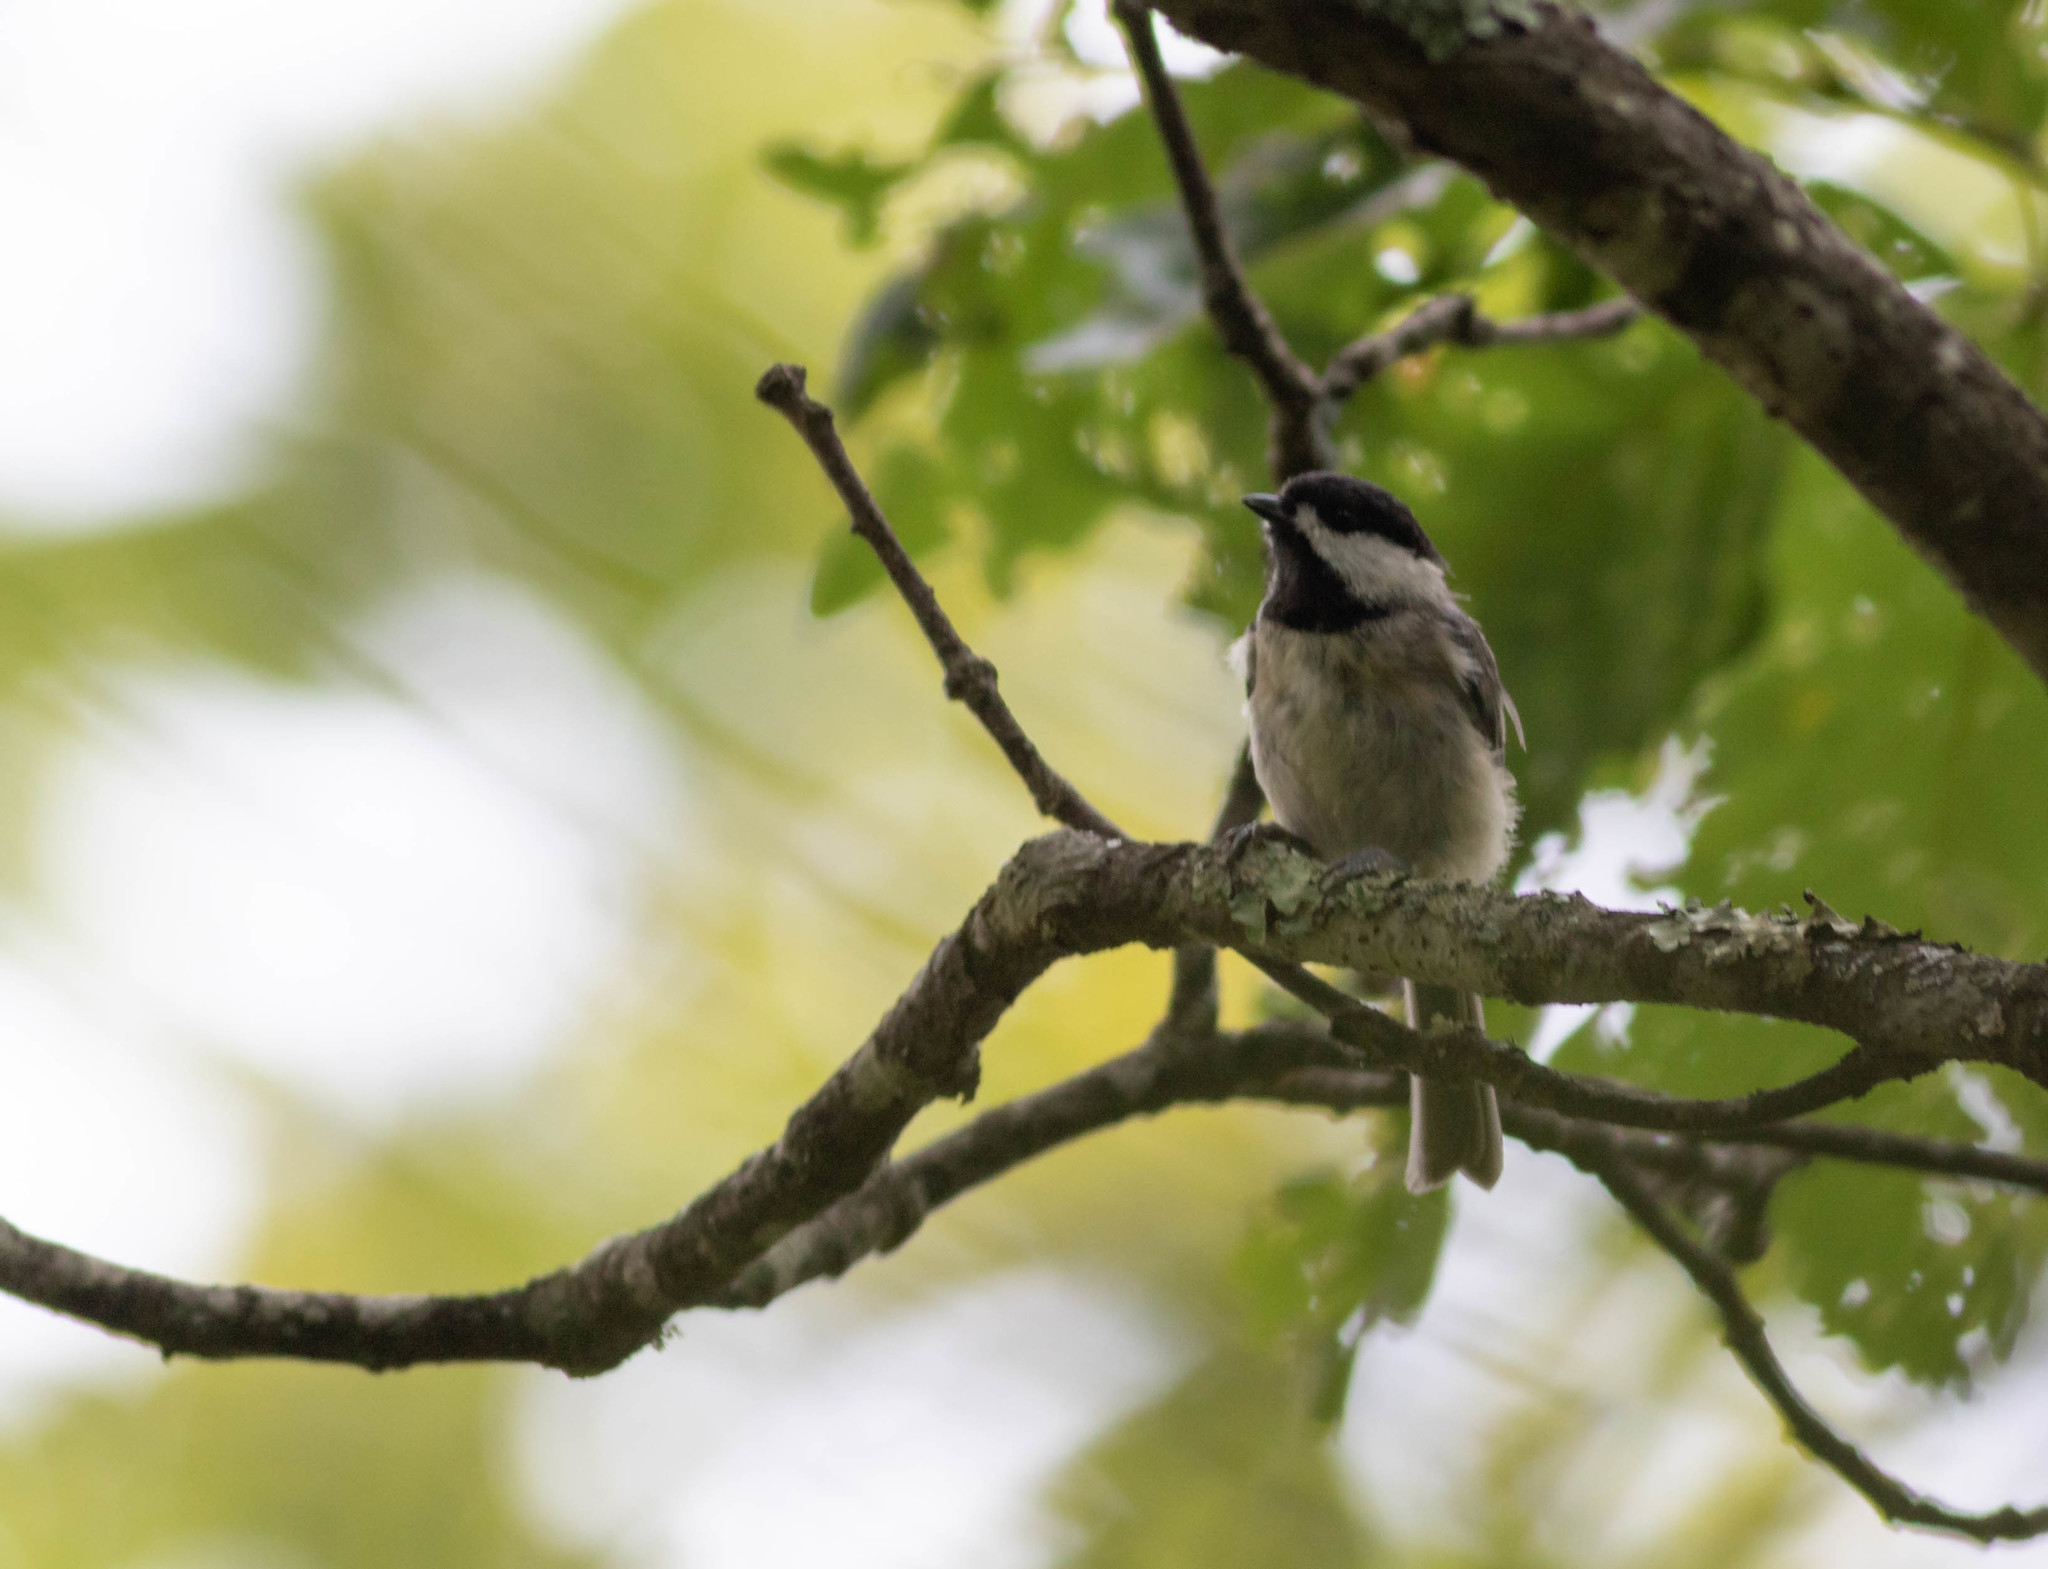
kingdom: Animalia
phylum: Chordata
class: Aves
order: Passeriformes
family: Paridae
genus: Poecile
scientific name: Poecile carolinensis
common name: Carolina chickadee
